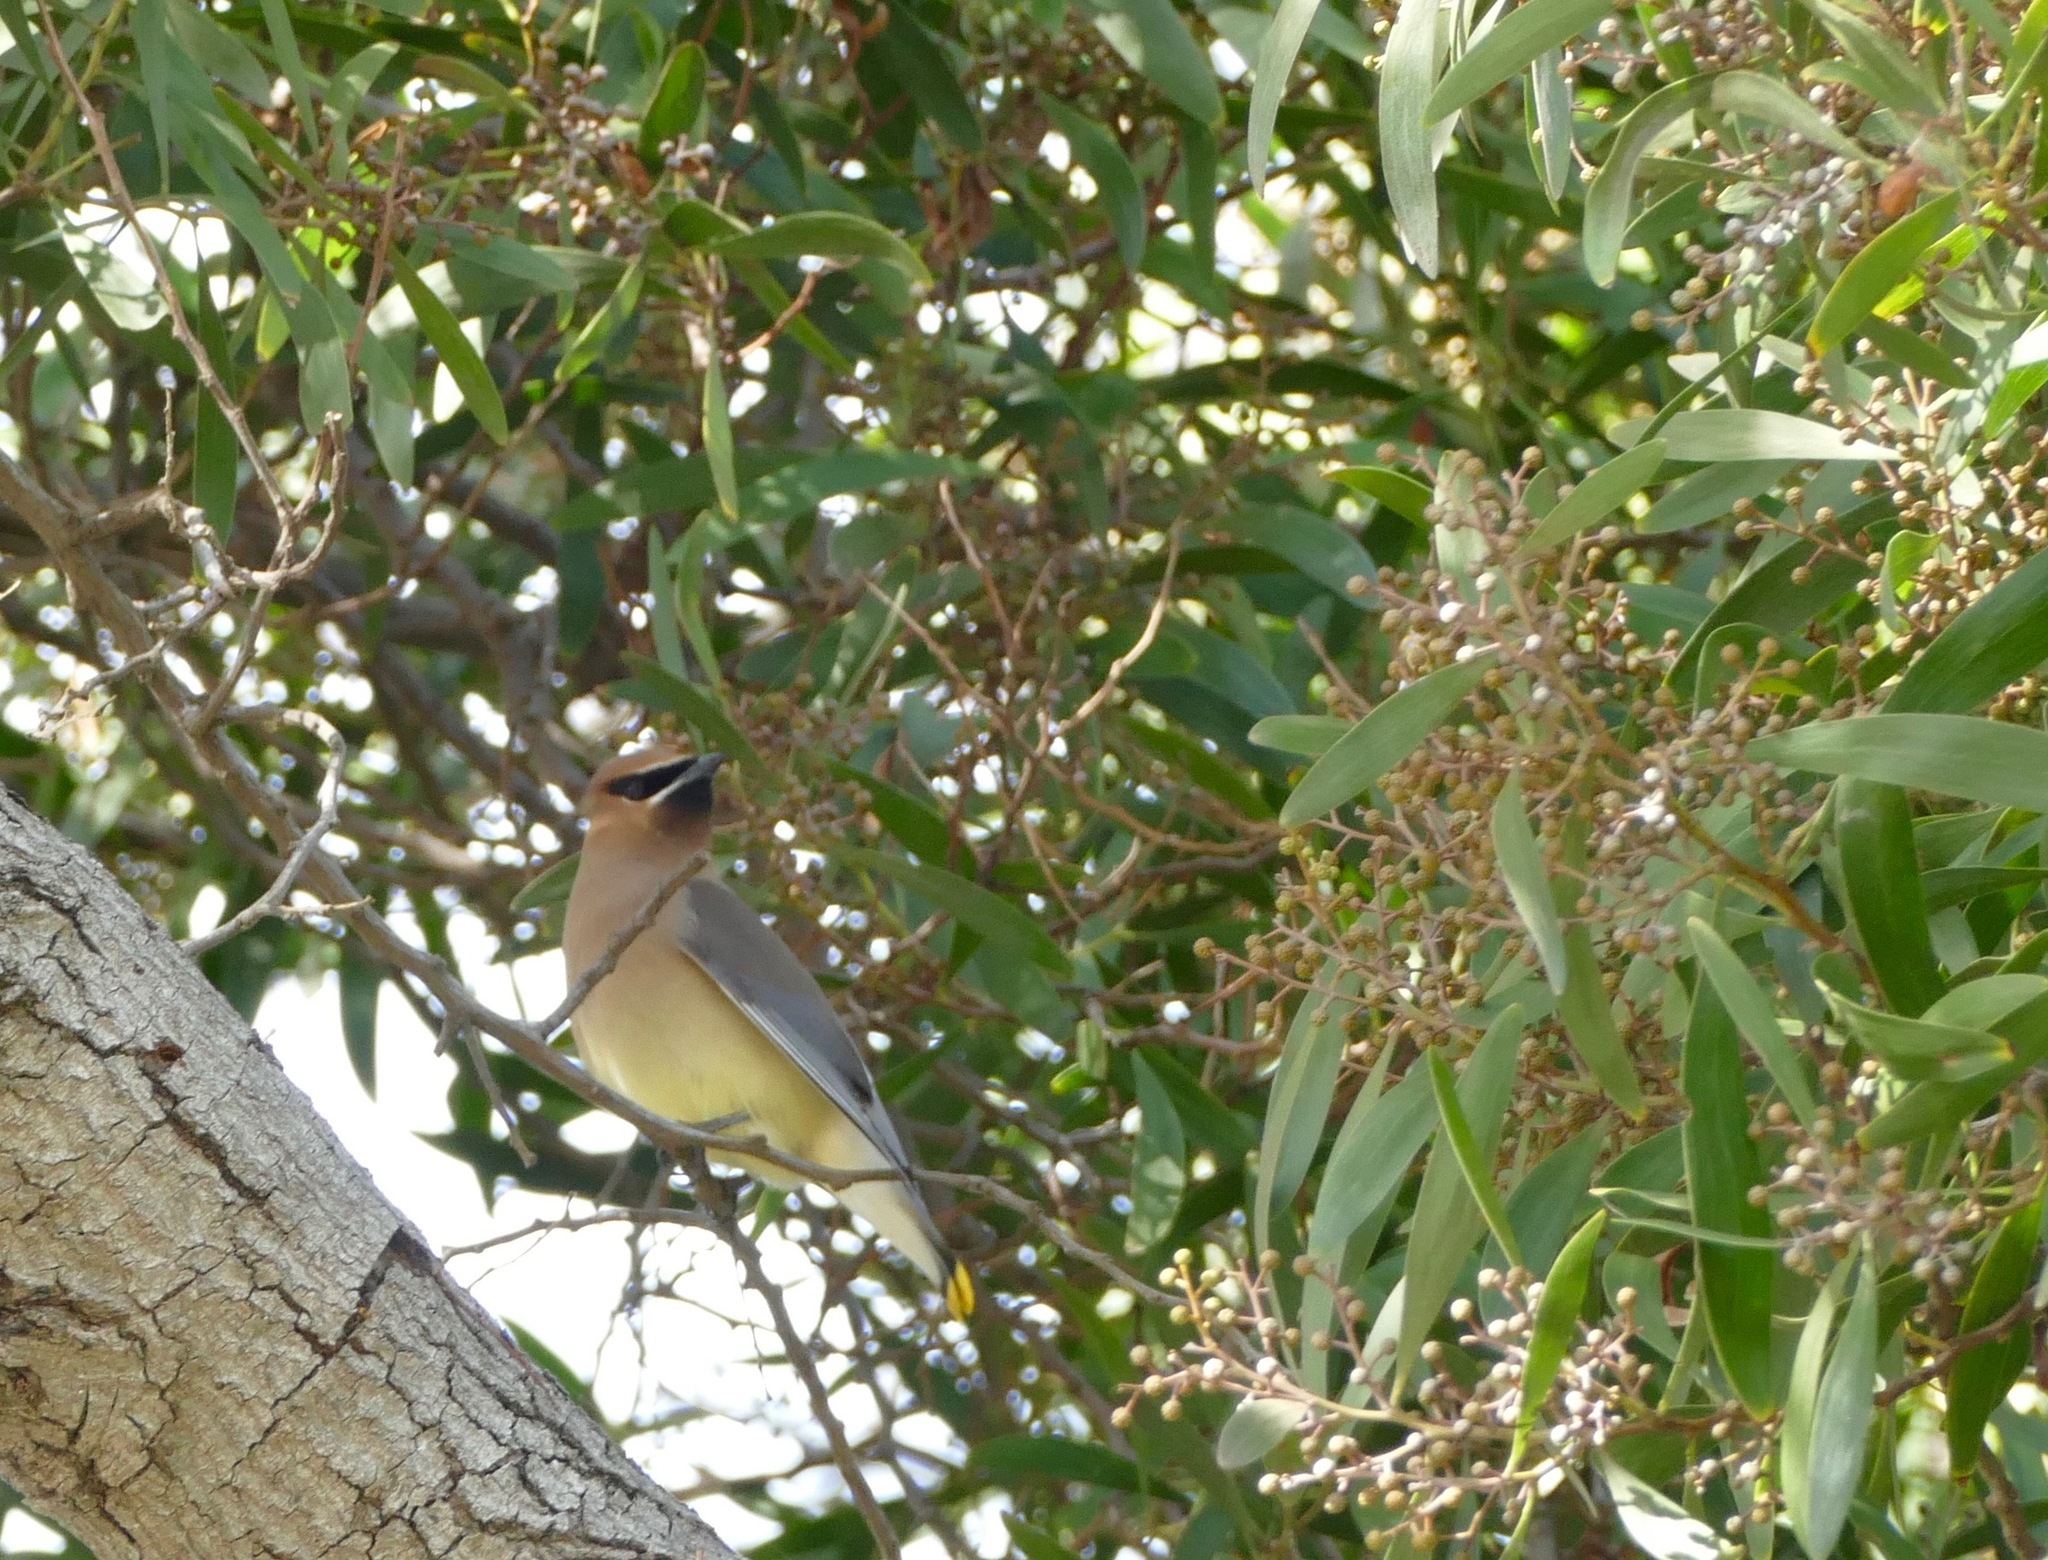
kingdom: Animalia
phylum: Chordata
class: Aves
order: Passeriformes
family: Bombycillidae
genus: Bombycilla
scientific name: Bombycilla cedrorum
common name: Cedar waxwing
